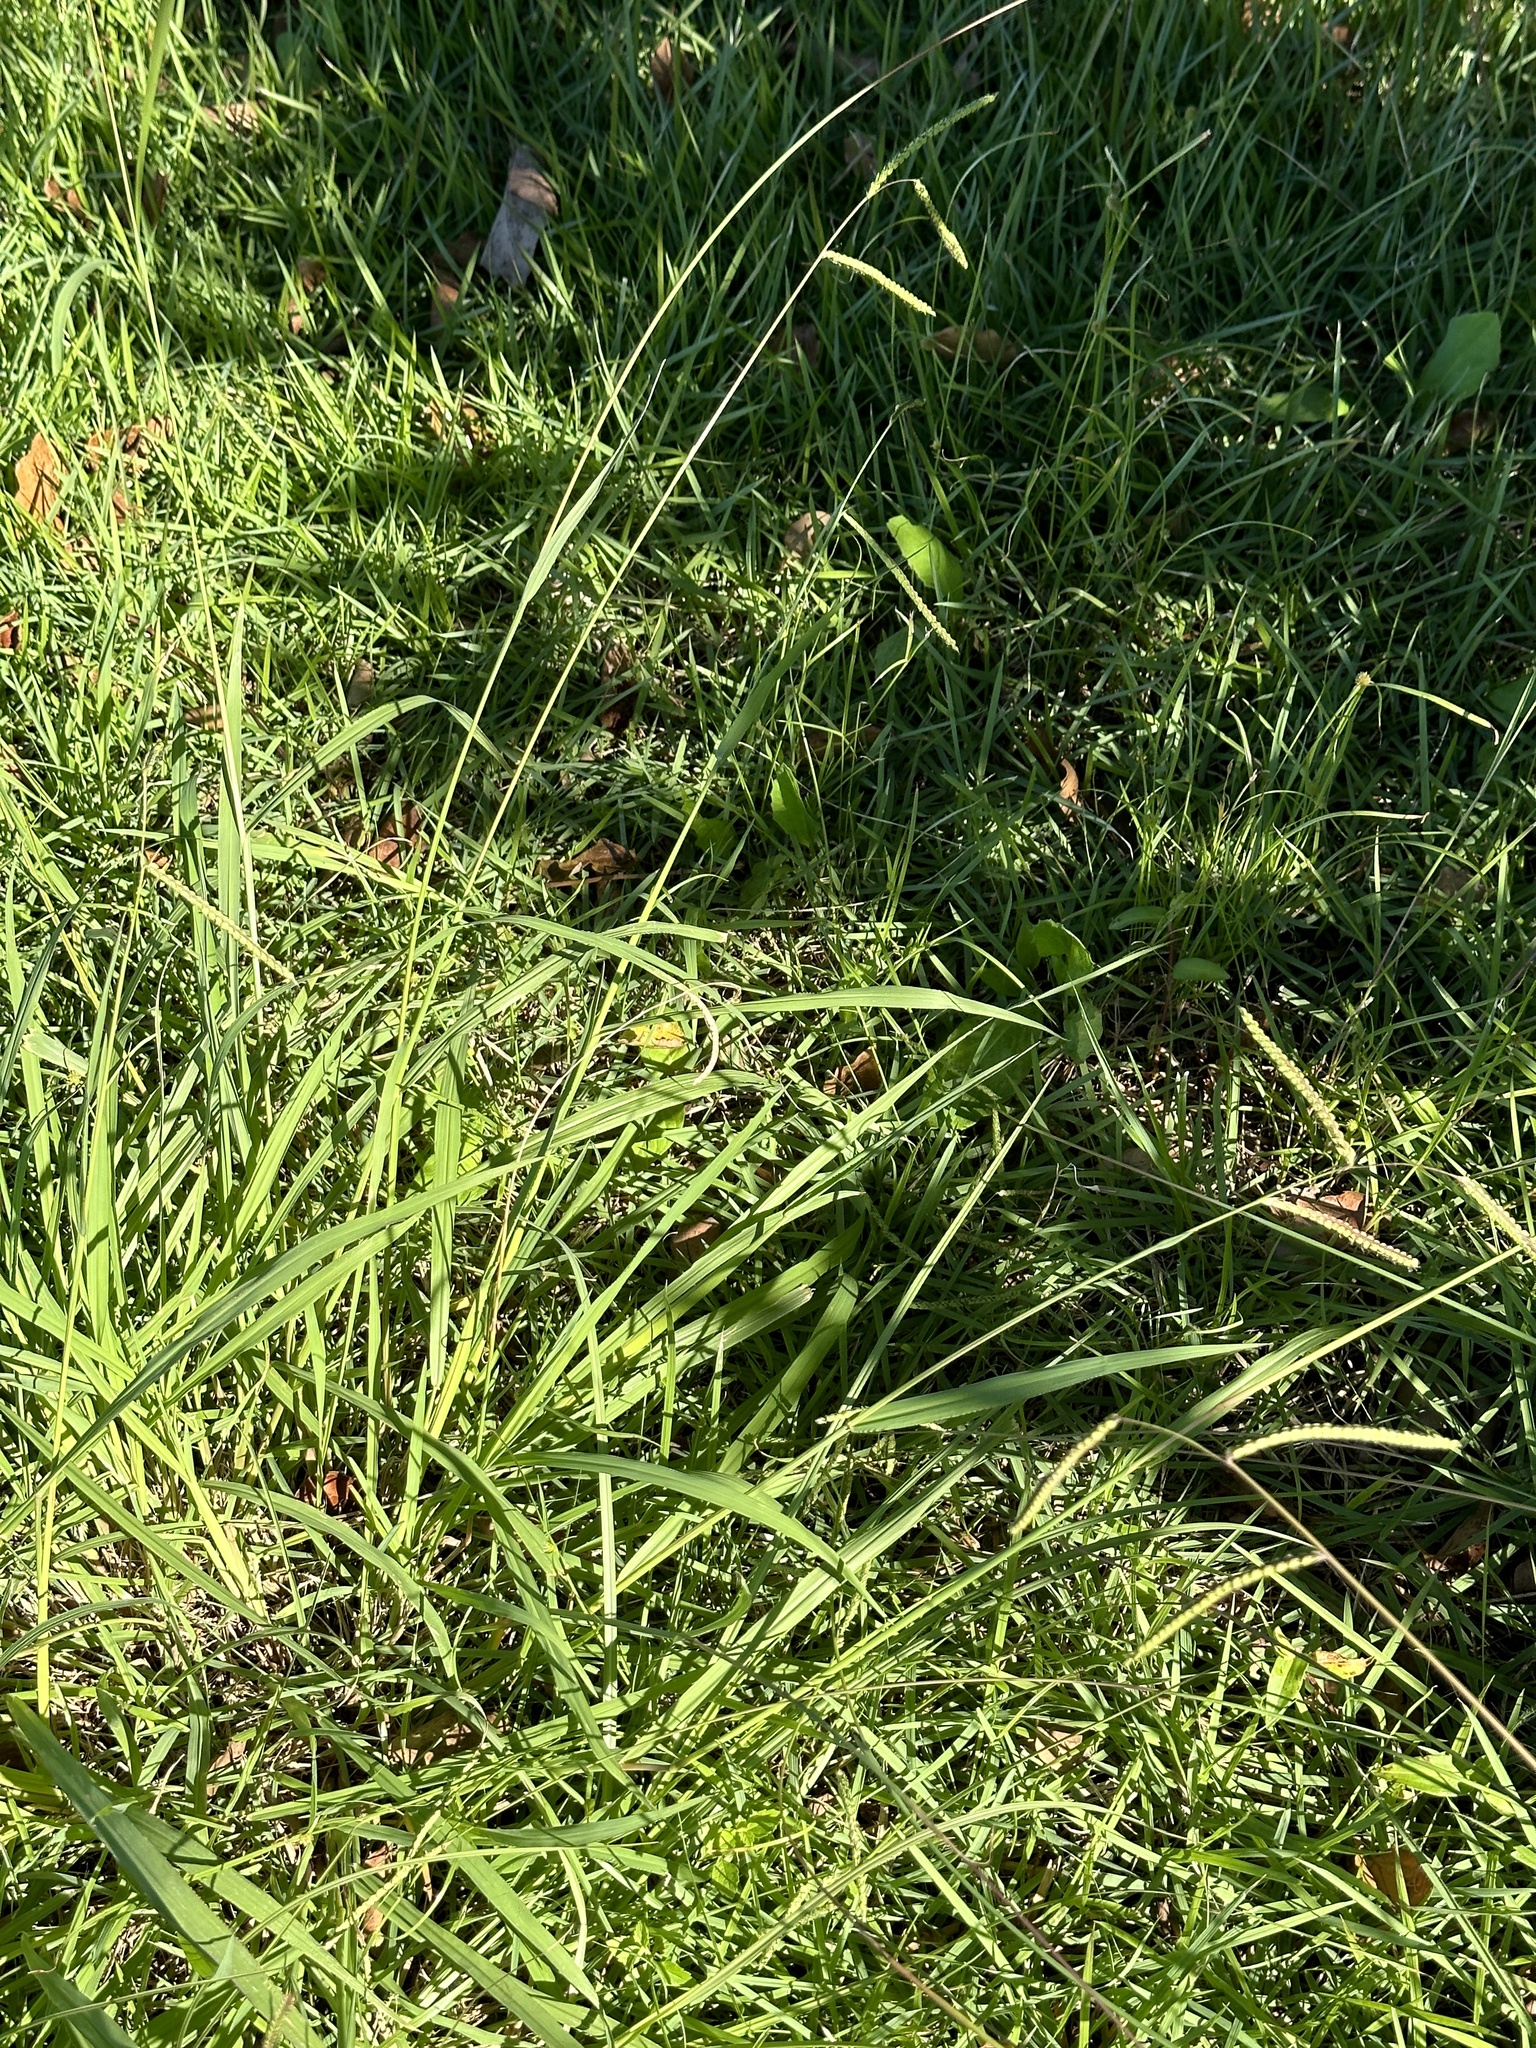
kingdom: Plantae
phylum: Tracheophyta
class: Liliopsida
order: Poales
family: Poaceae
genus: Paspalum
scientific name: Paspalum dilatatum
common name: Dallisgrass
